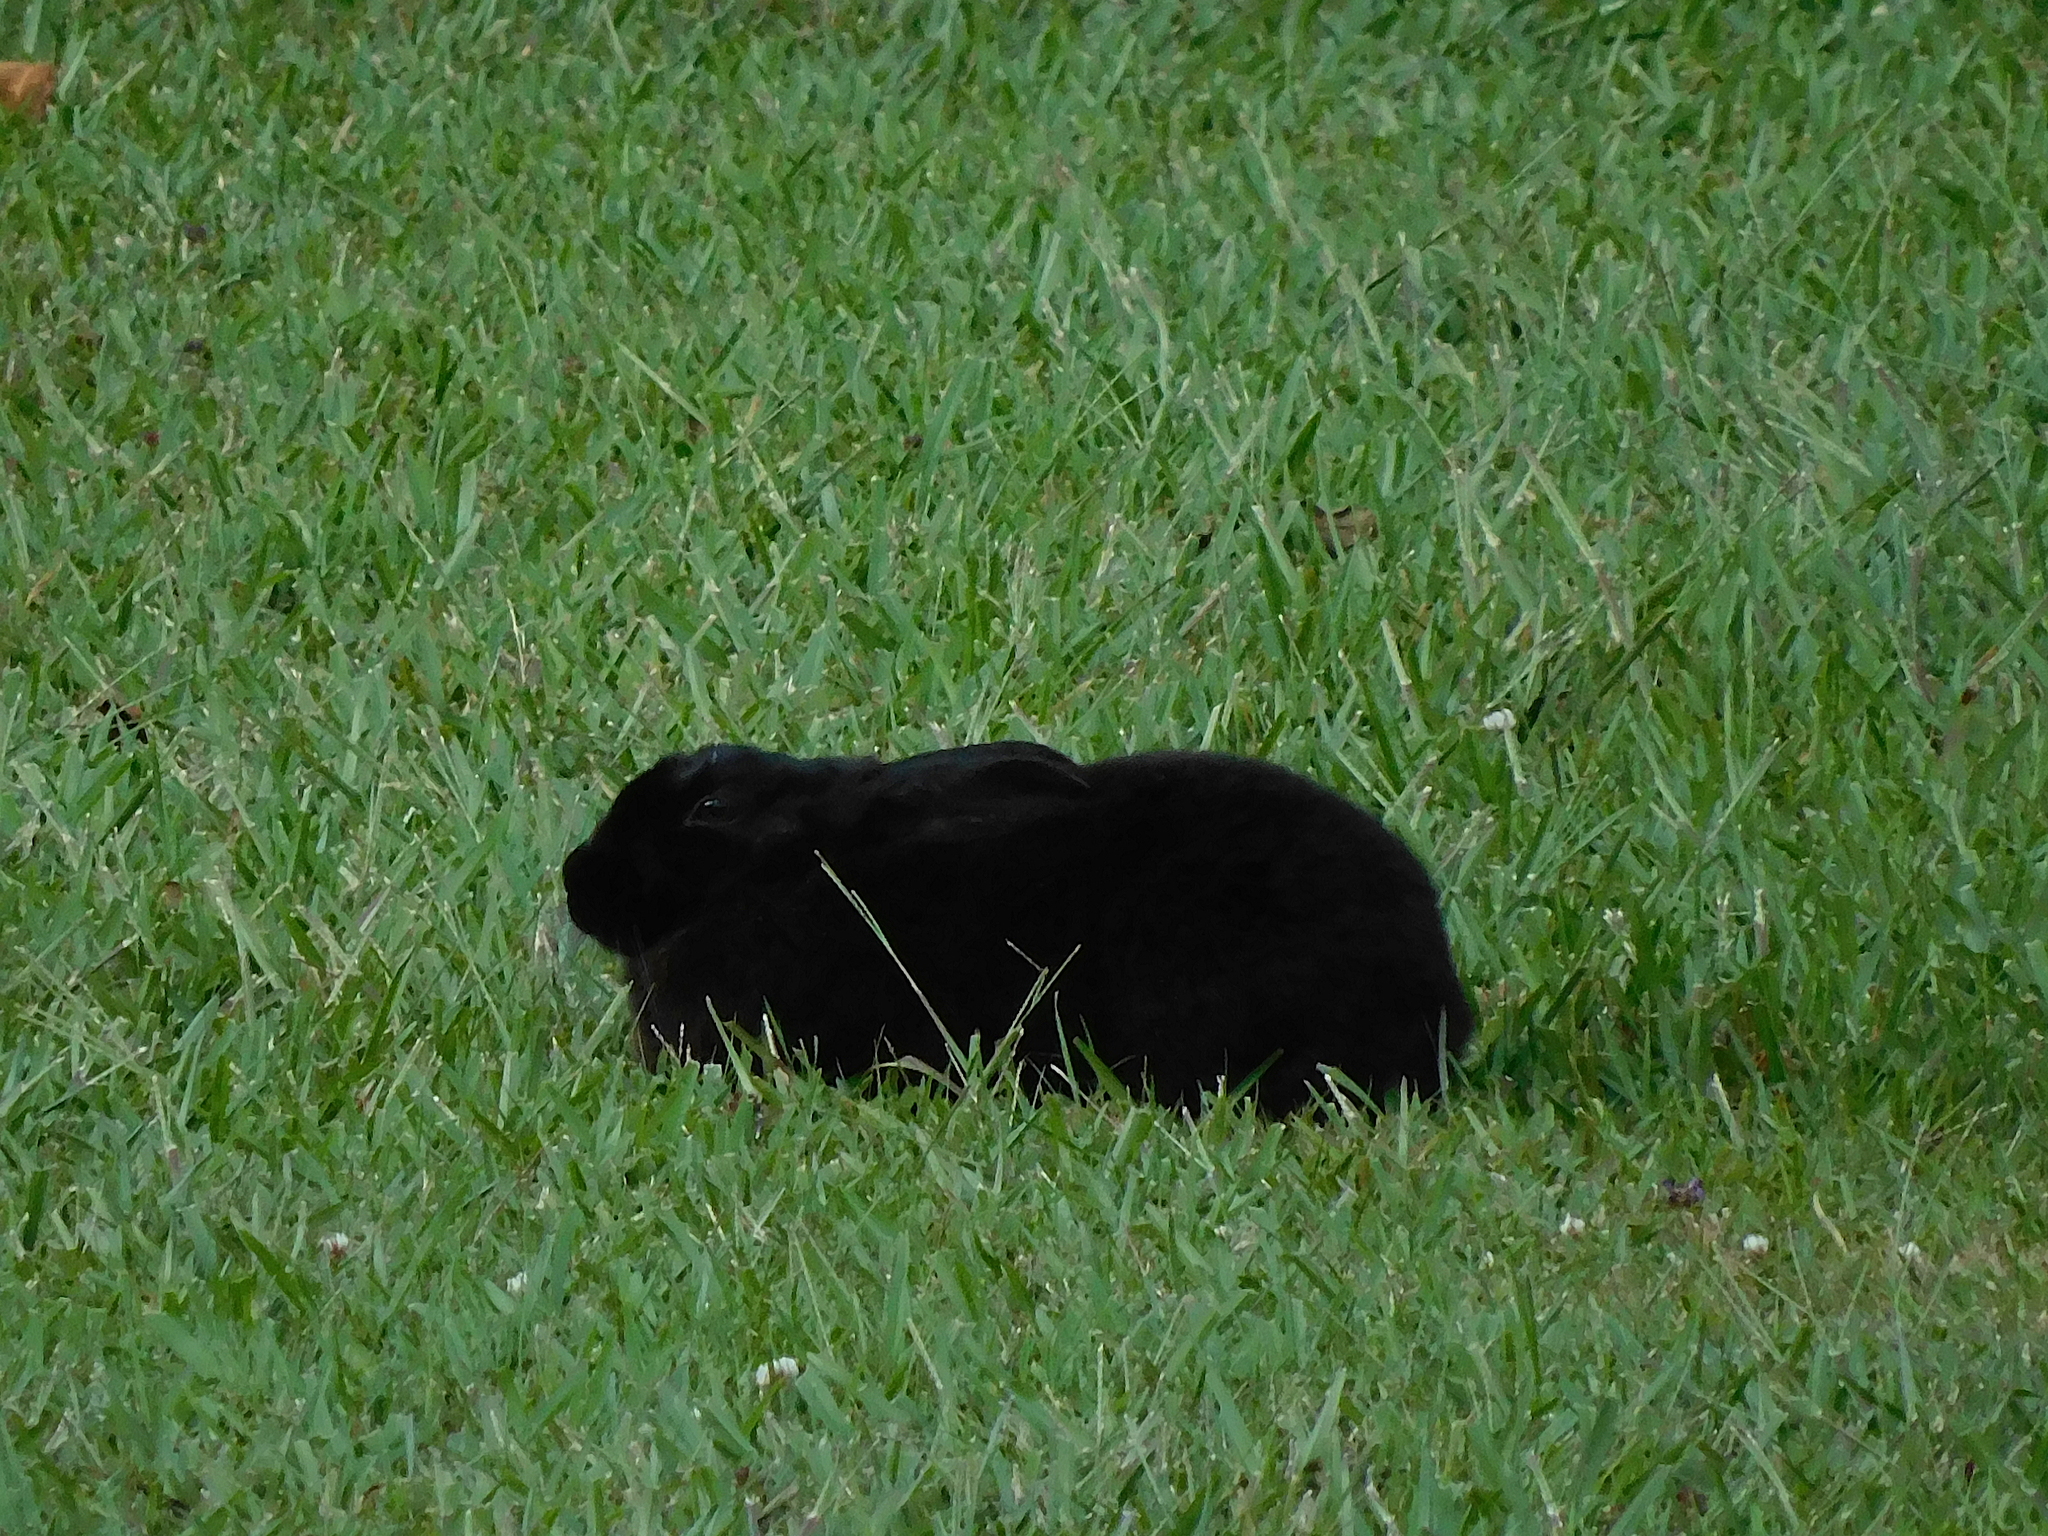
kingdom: Animalia
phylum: Chordata
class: Mammalia
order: Lagomorpha
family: Leporidae
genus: Oryctolagus
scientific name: Oryctolagus cuniculus
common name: European rabbit
